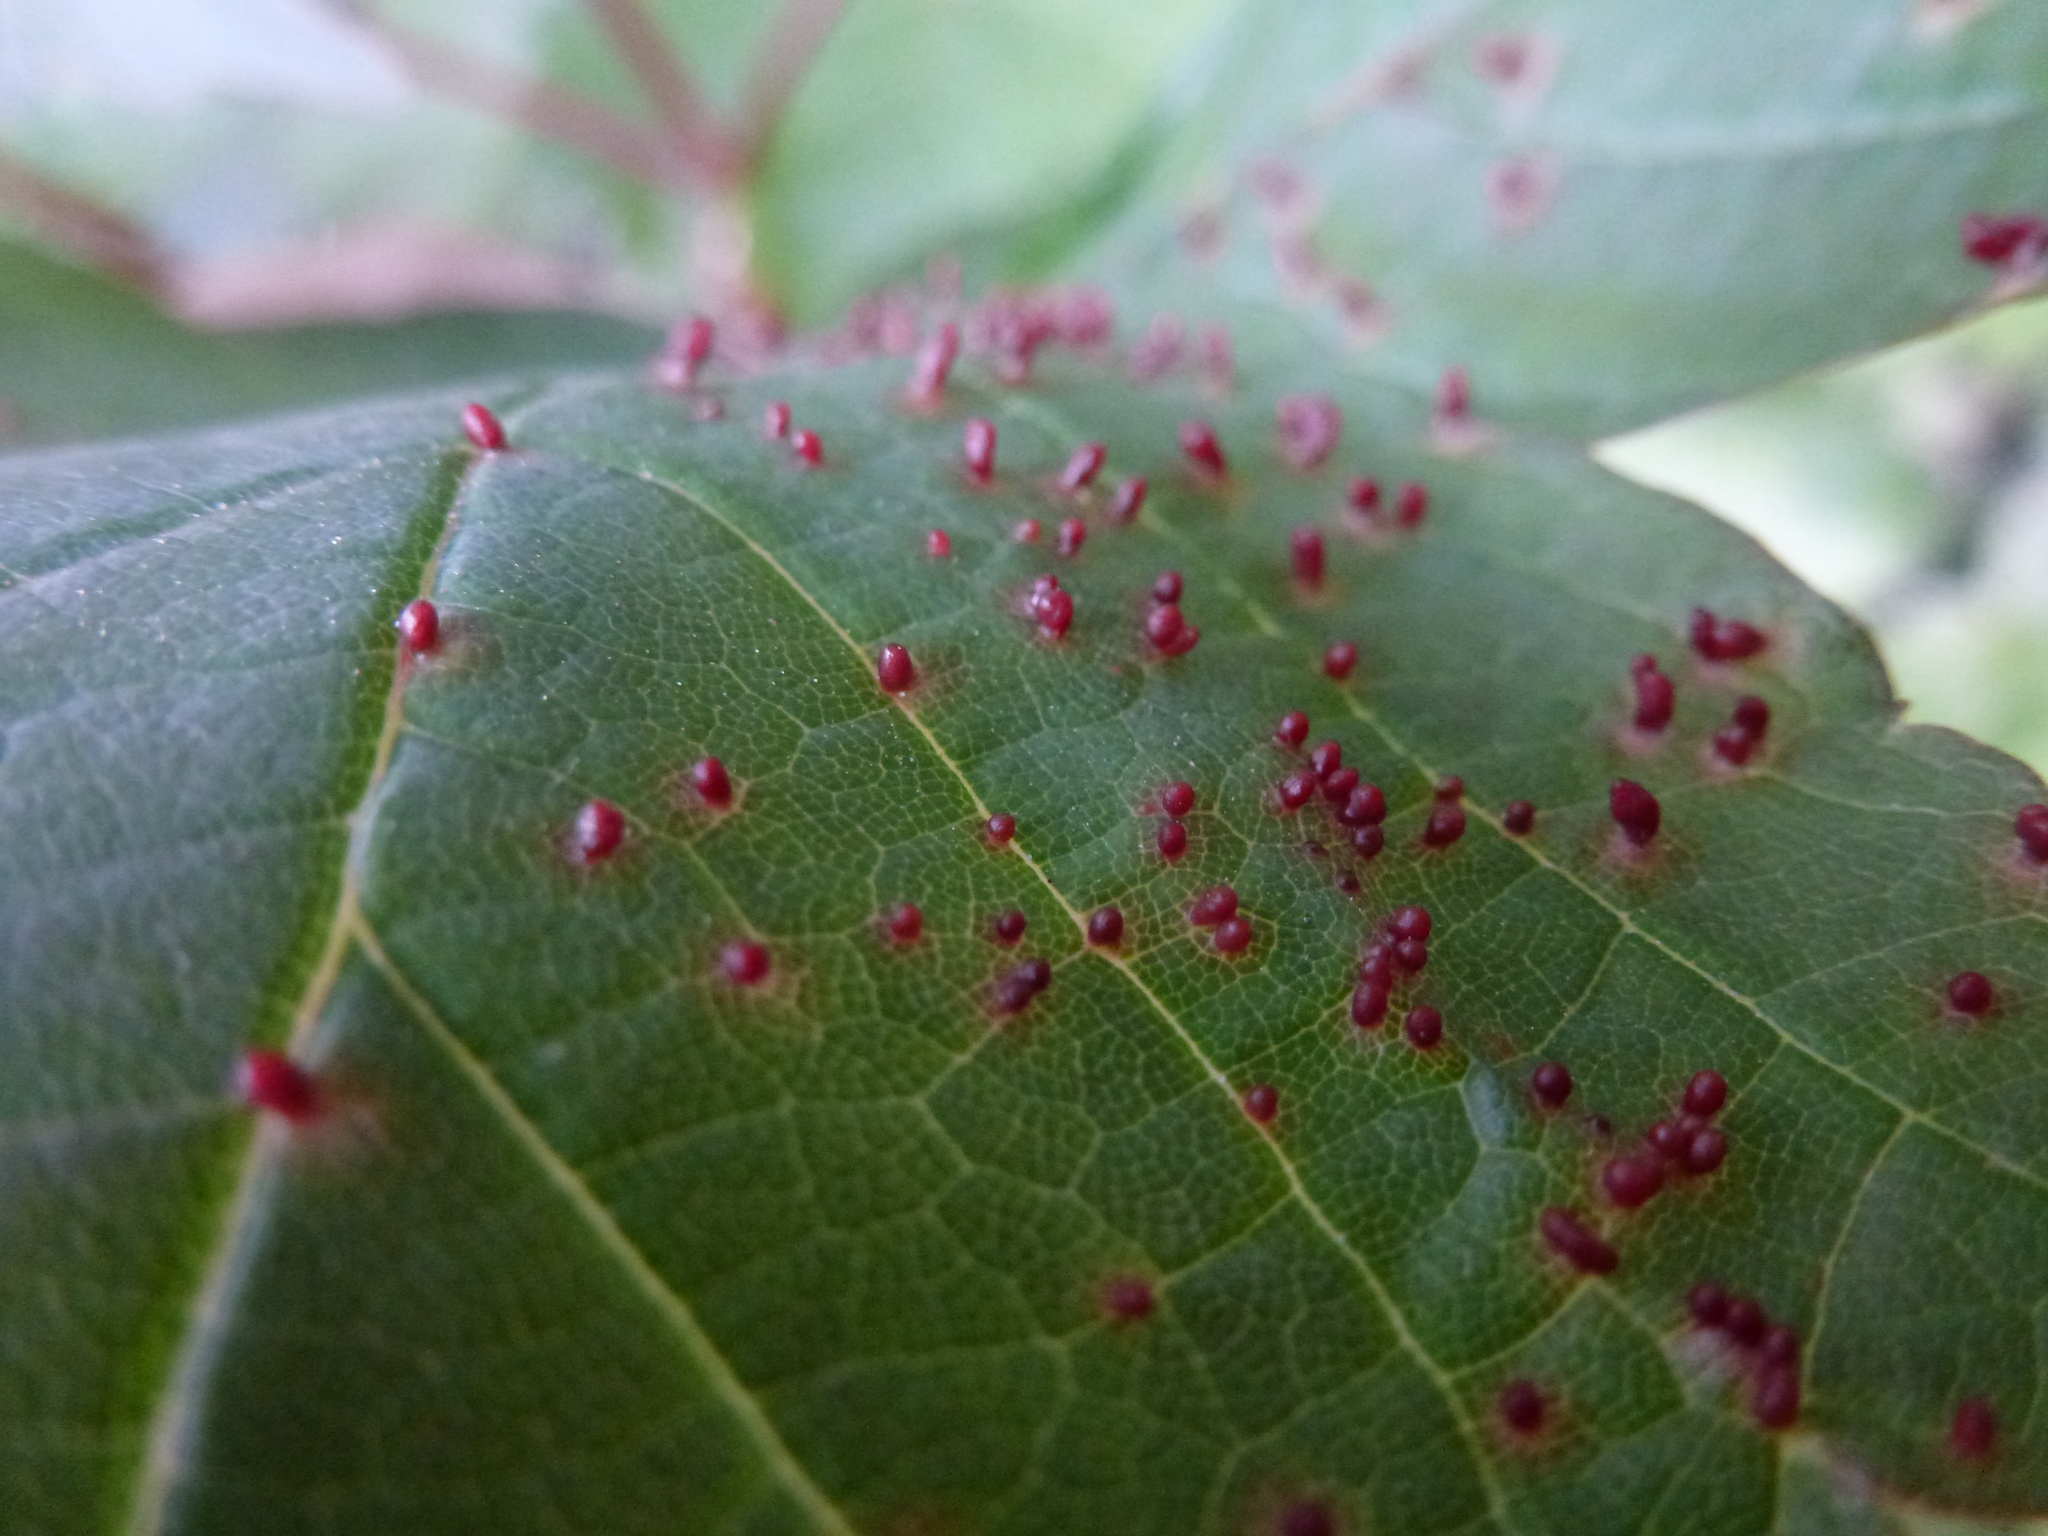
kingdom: Animalia
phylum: Arthropoda
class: Arachnida
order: Trombidiformes
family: Eriophyidae
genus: Aceria
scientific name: Aceria cephaloneus
